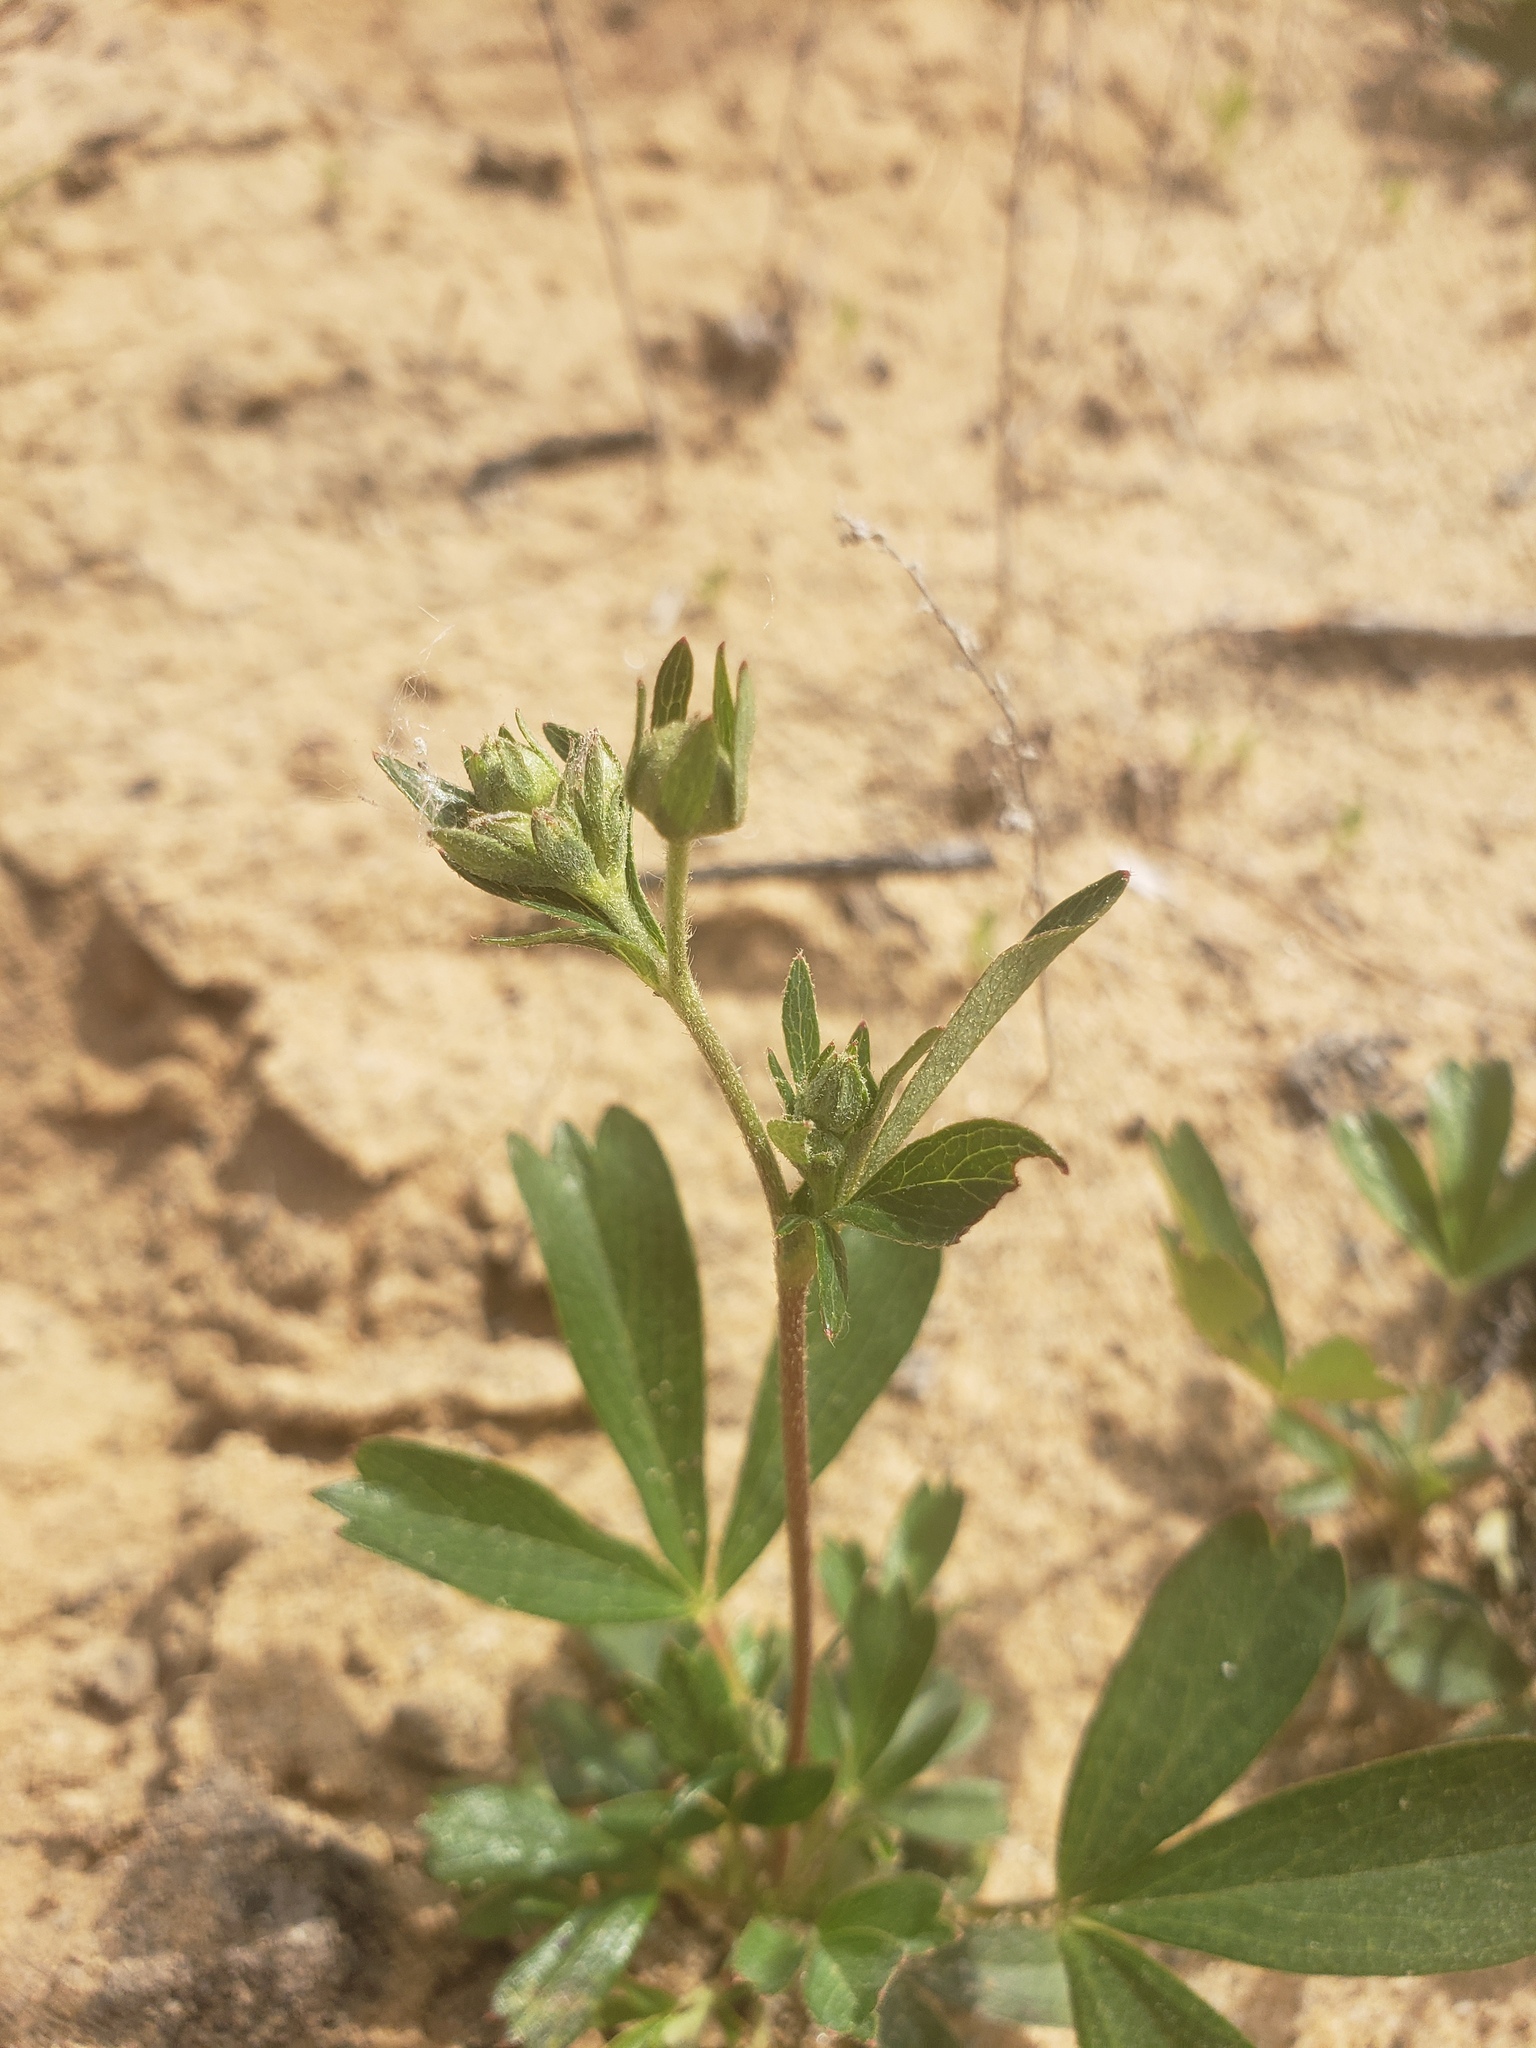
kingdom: Plantae
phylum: Tracheophyta
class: Magnoliopsida
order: Rosales
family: Rosaceae
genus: Sibbaldia
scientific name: Sibbaldia tridentata
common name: Three-toothed cinquefoil
